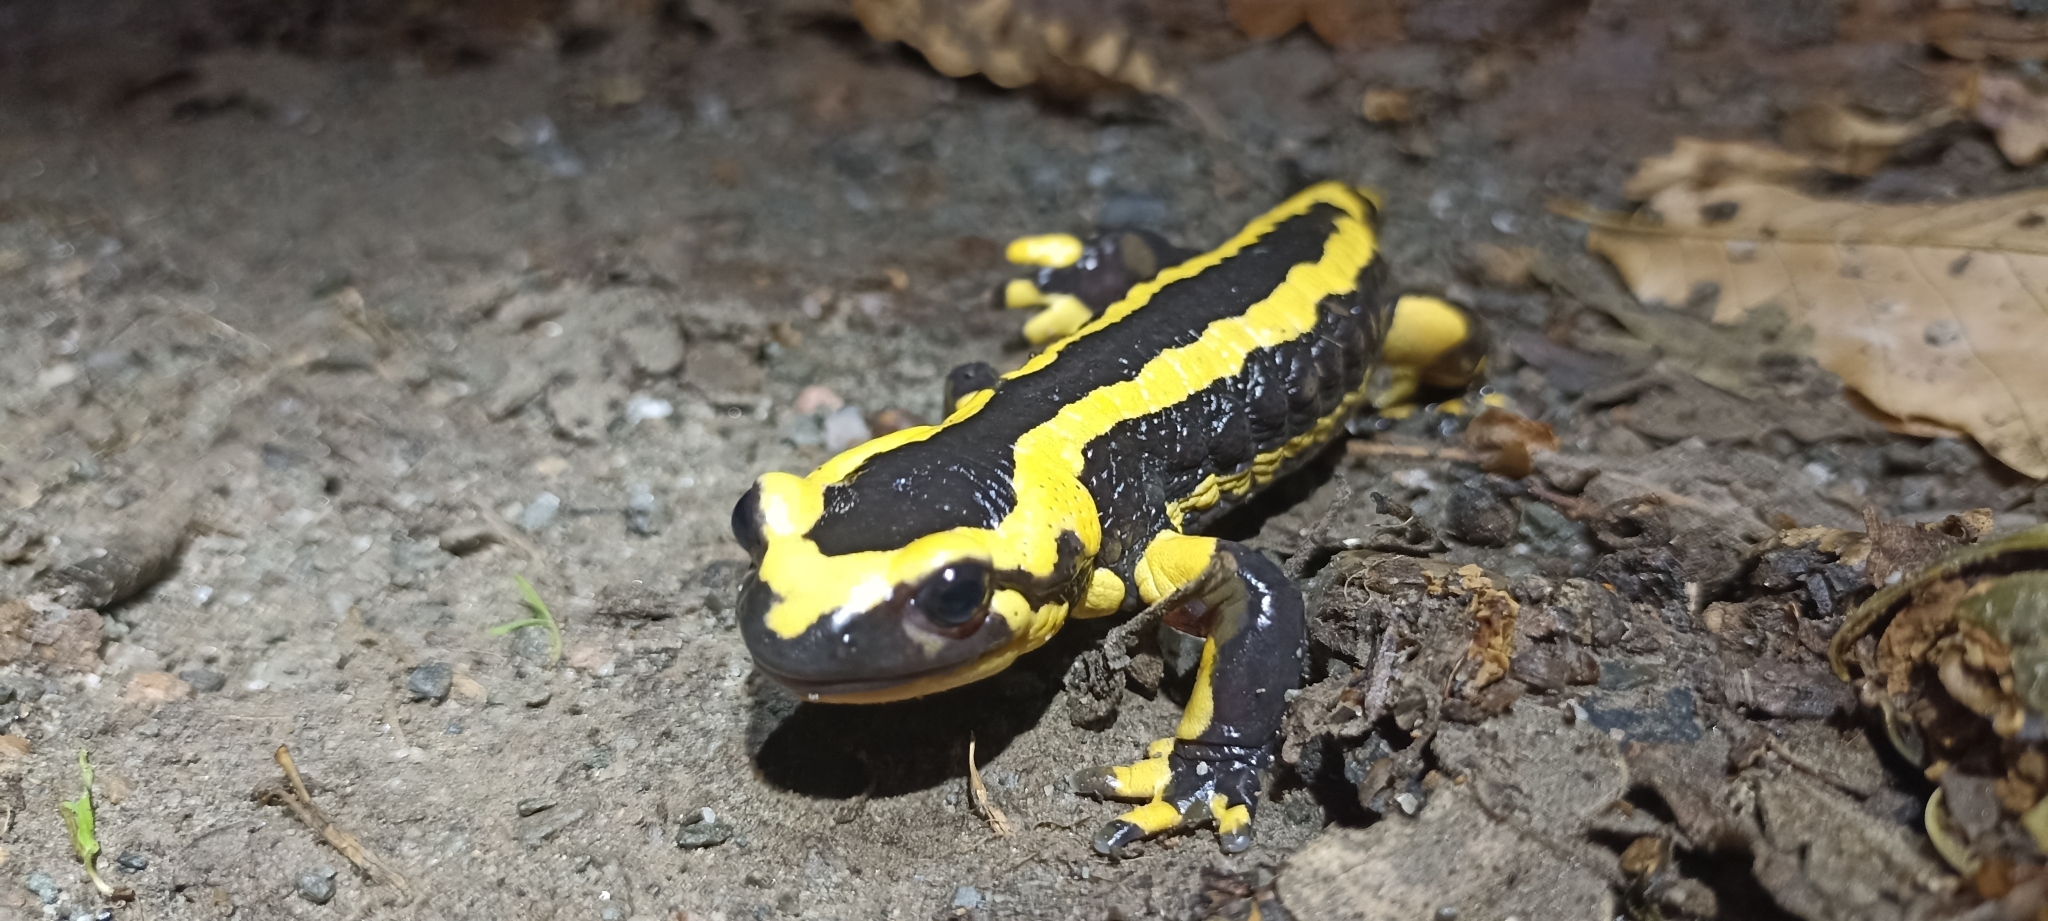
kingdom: Animalia
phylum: Chordata
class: Amphibia
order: Caudata
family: Salamandridae
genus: Salamandra
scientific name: Salamandra salamandra
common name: Fire salamander
